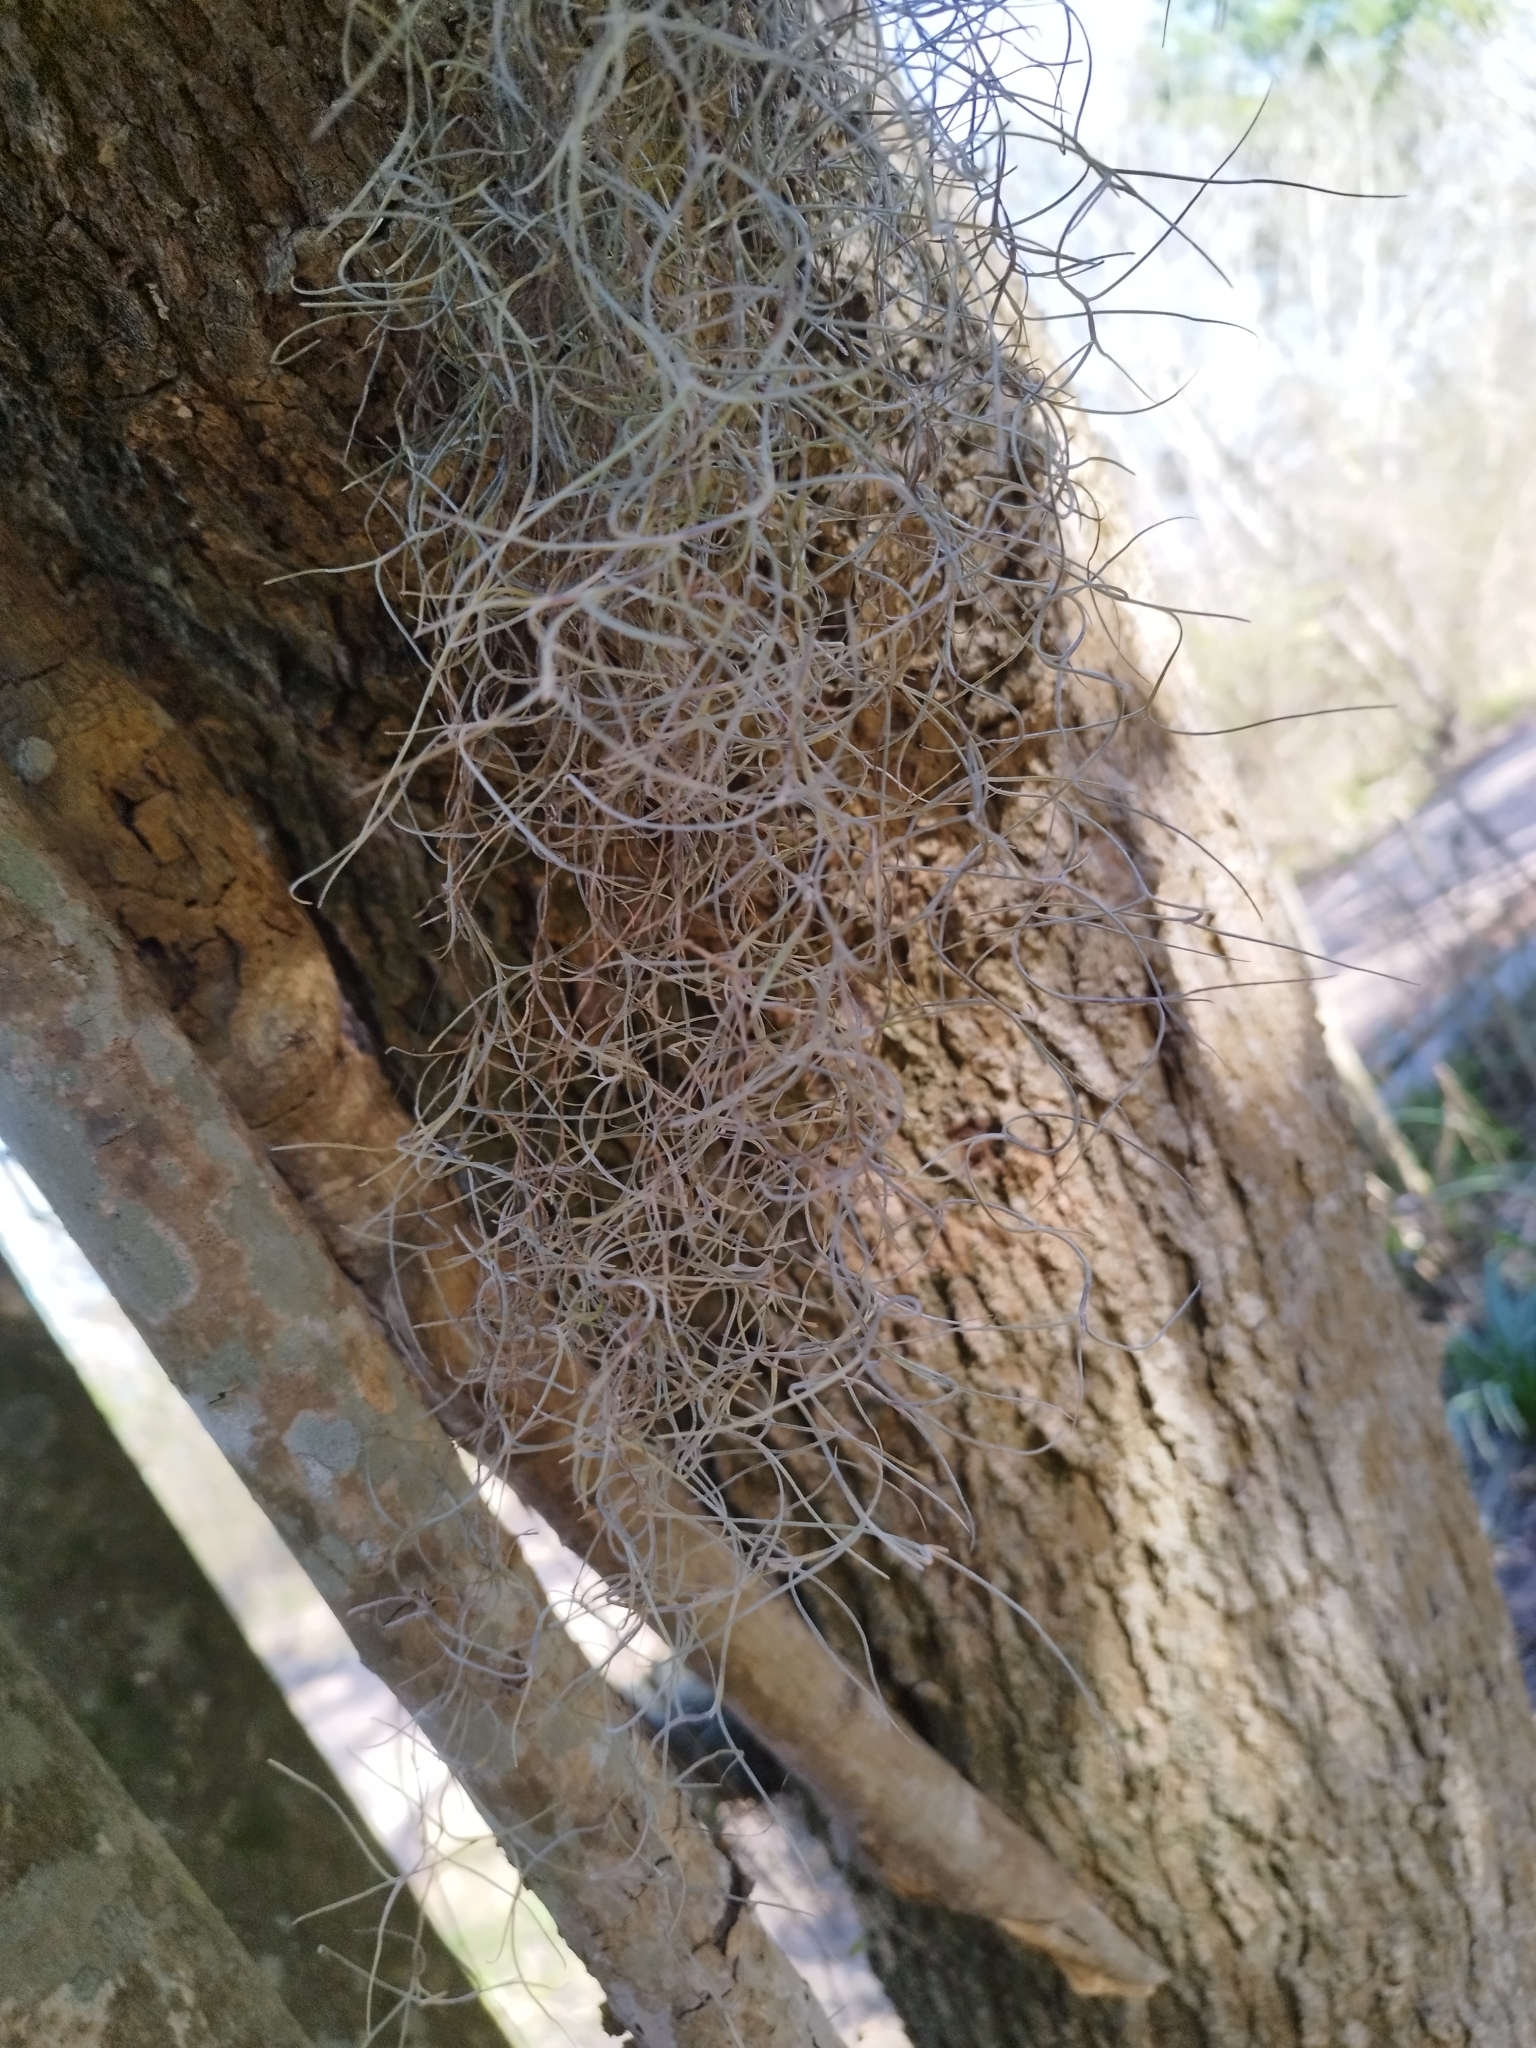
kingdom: Plantae
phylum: Tracheophyta
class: Liliopsida
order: Poales
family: Bromeliaceae
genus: Tillandsia
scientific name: Tillandsia usneoides
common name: Spanish moss
